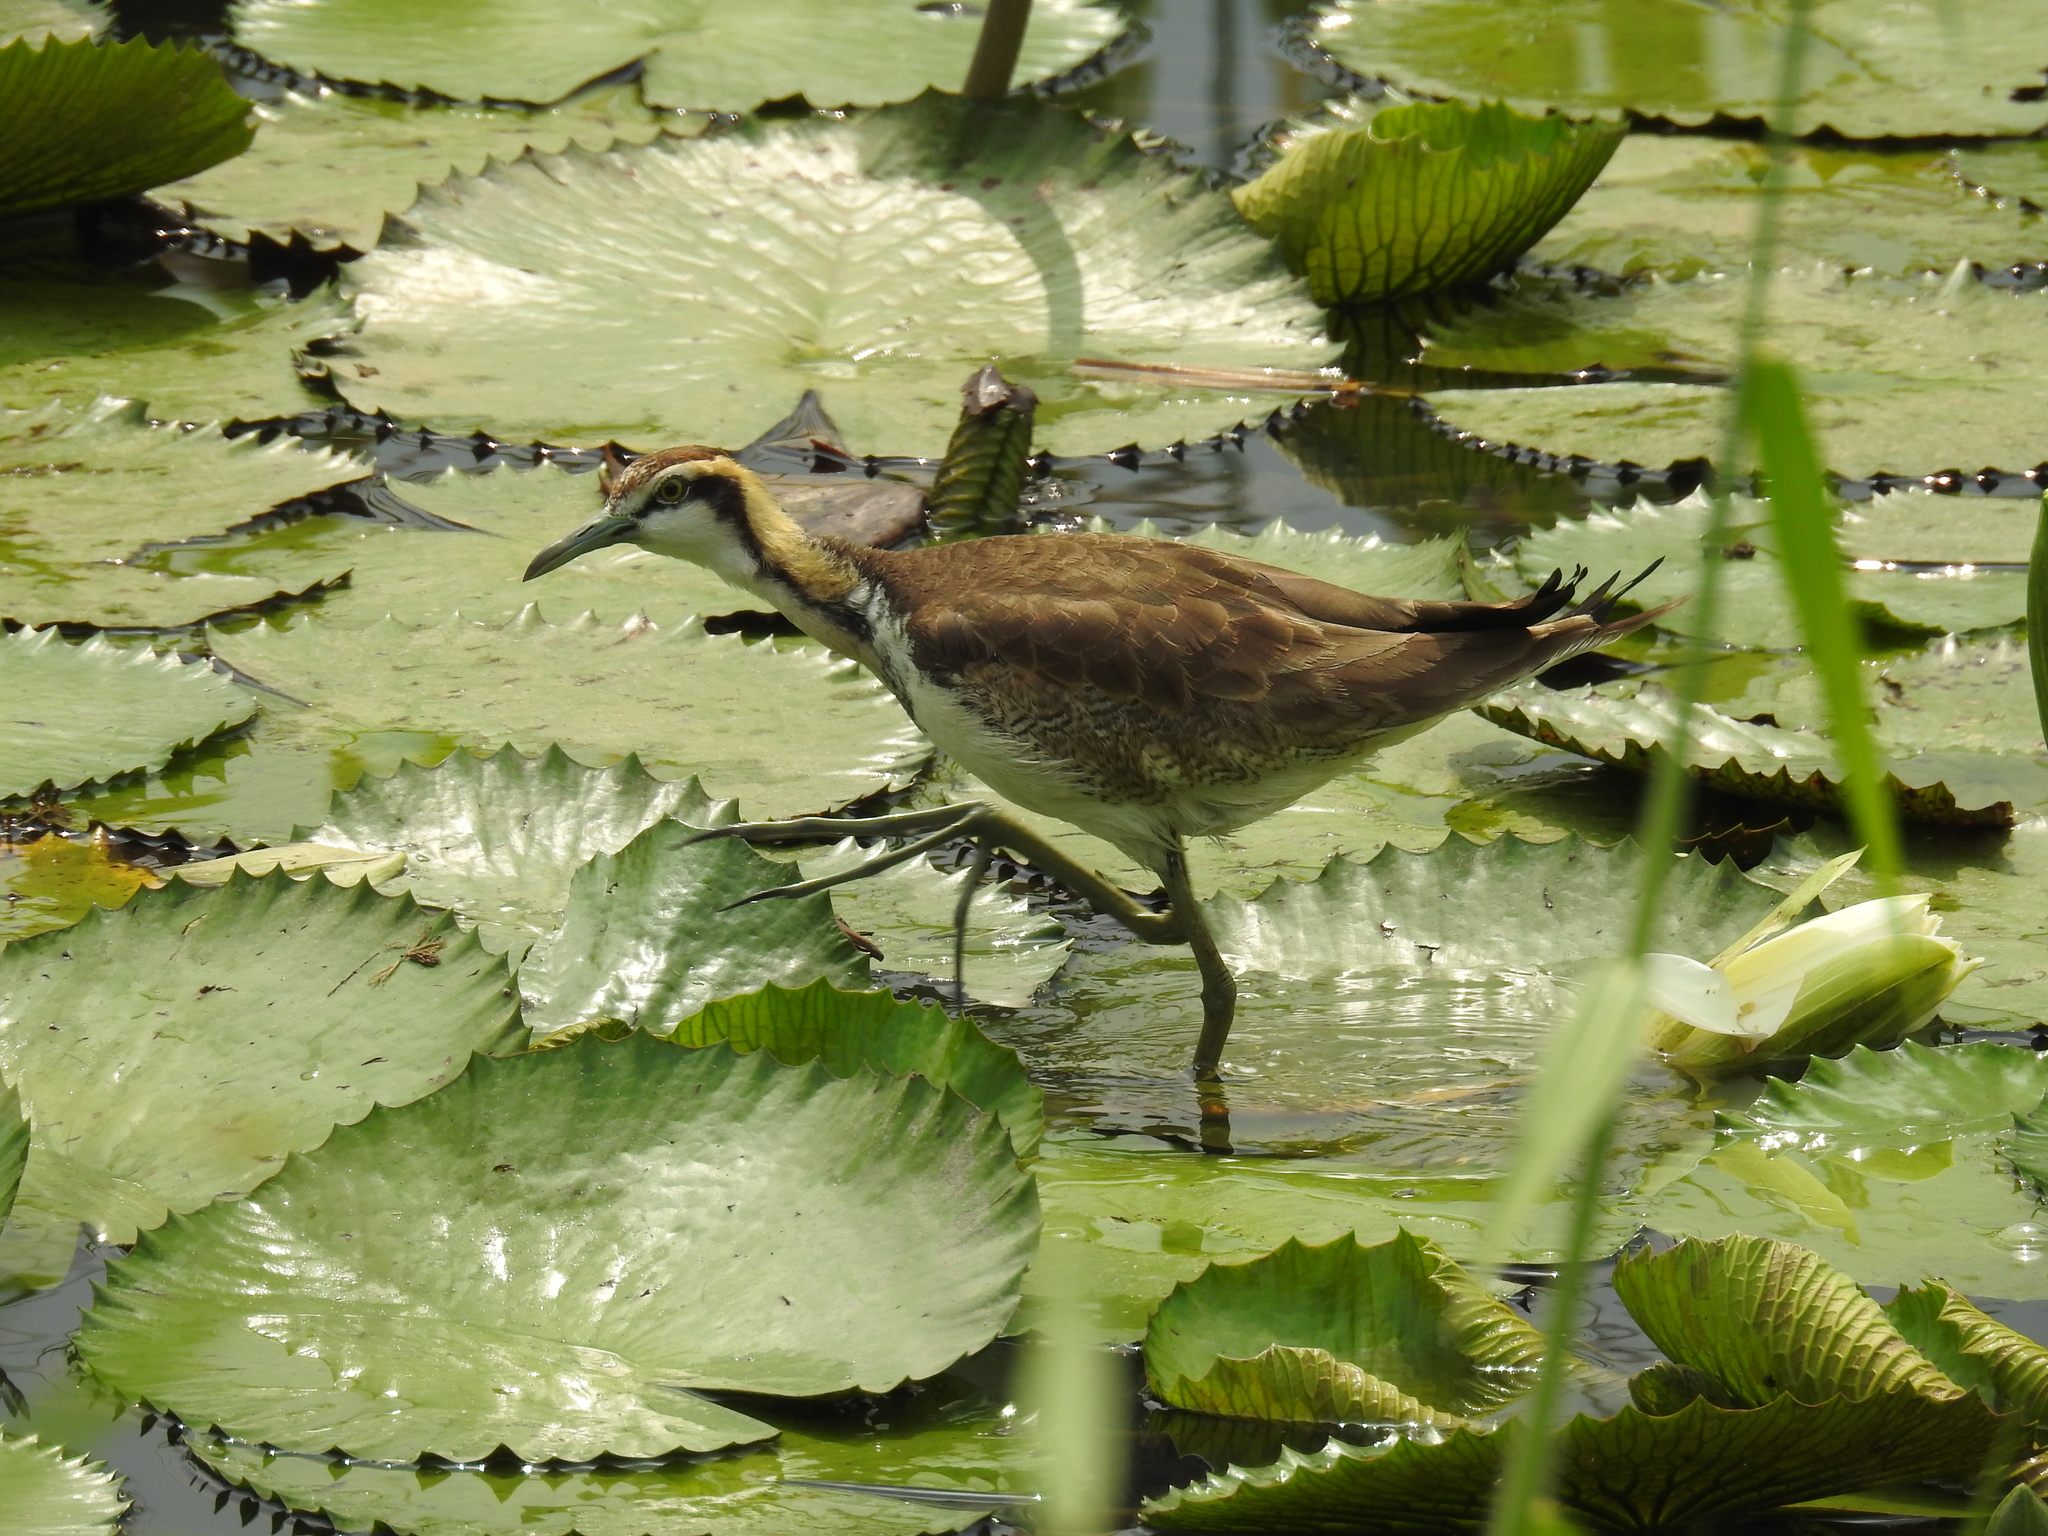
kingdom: Animalia
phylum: Chordata
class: Aves
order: Charadriiformes
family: Jacanidae
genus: Hydrophasianus
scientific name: Hydrophasianus chirurgus
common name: Pheasant-tailed jacana
